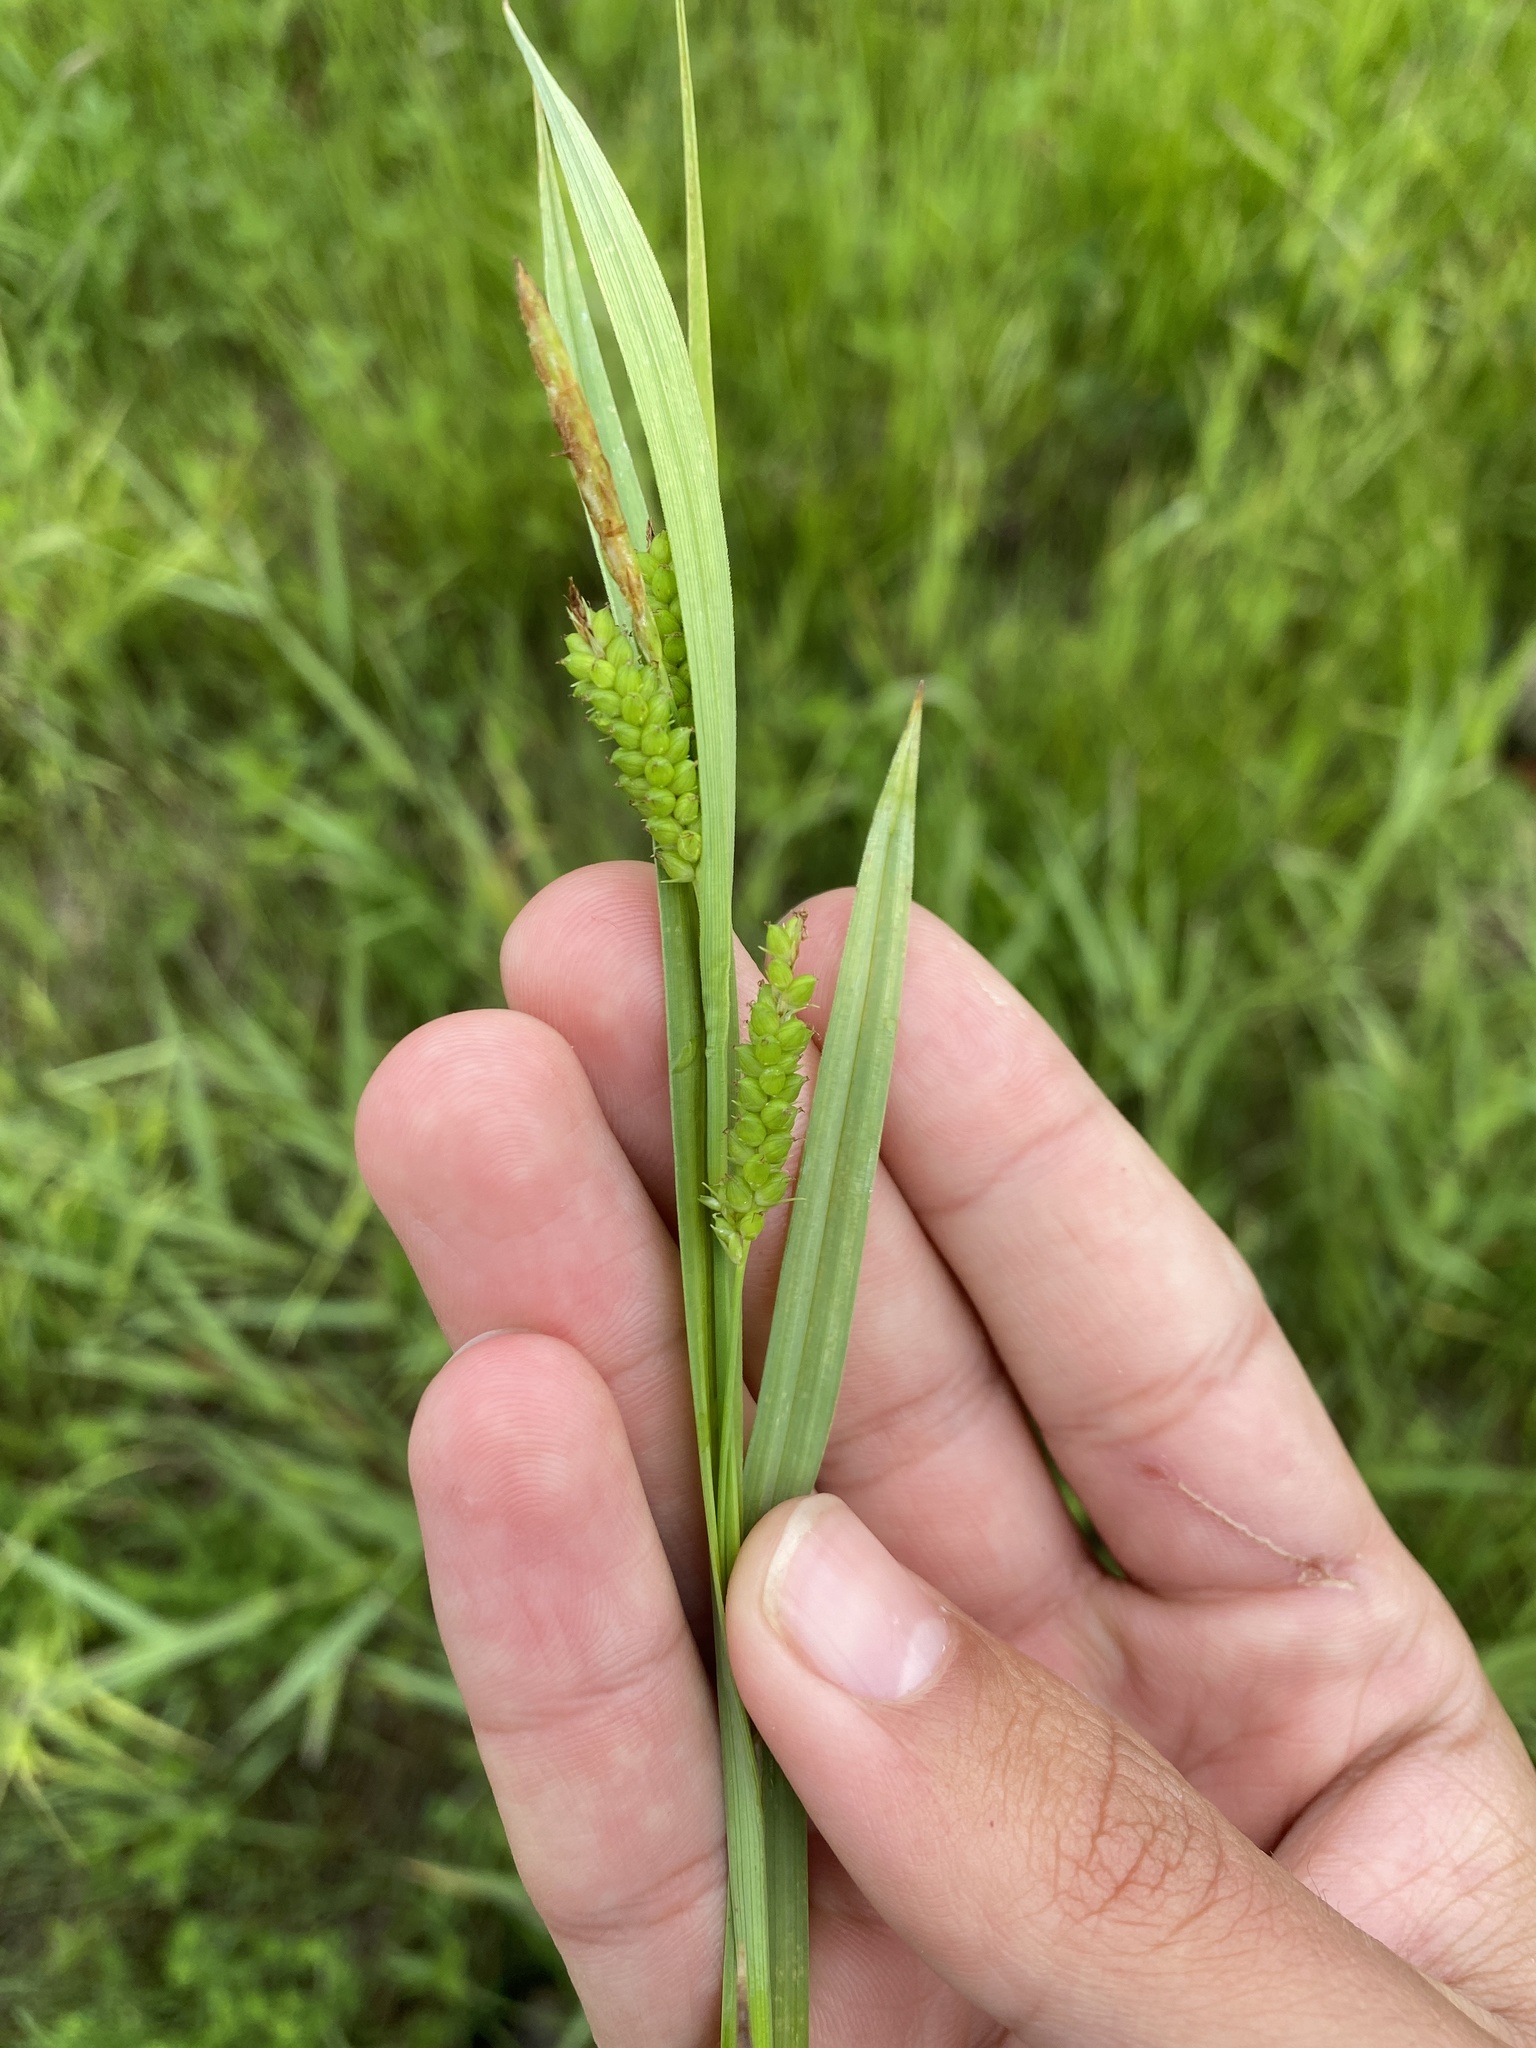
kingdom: Plantae
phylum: Tracheophyta
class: Liliopsida
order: Poales
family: Cyperaceae
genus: Carex
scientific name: Carex granularis
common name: Granular sedge
